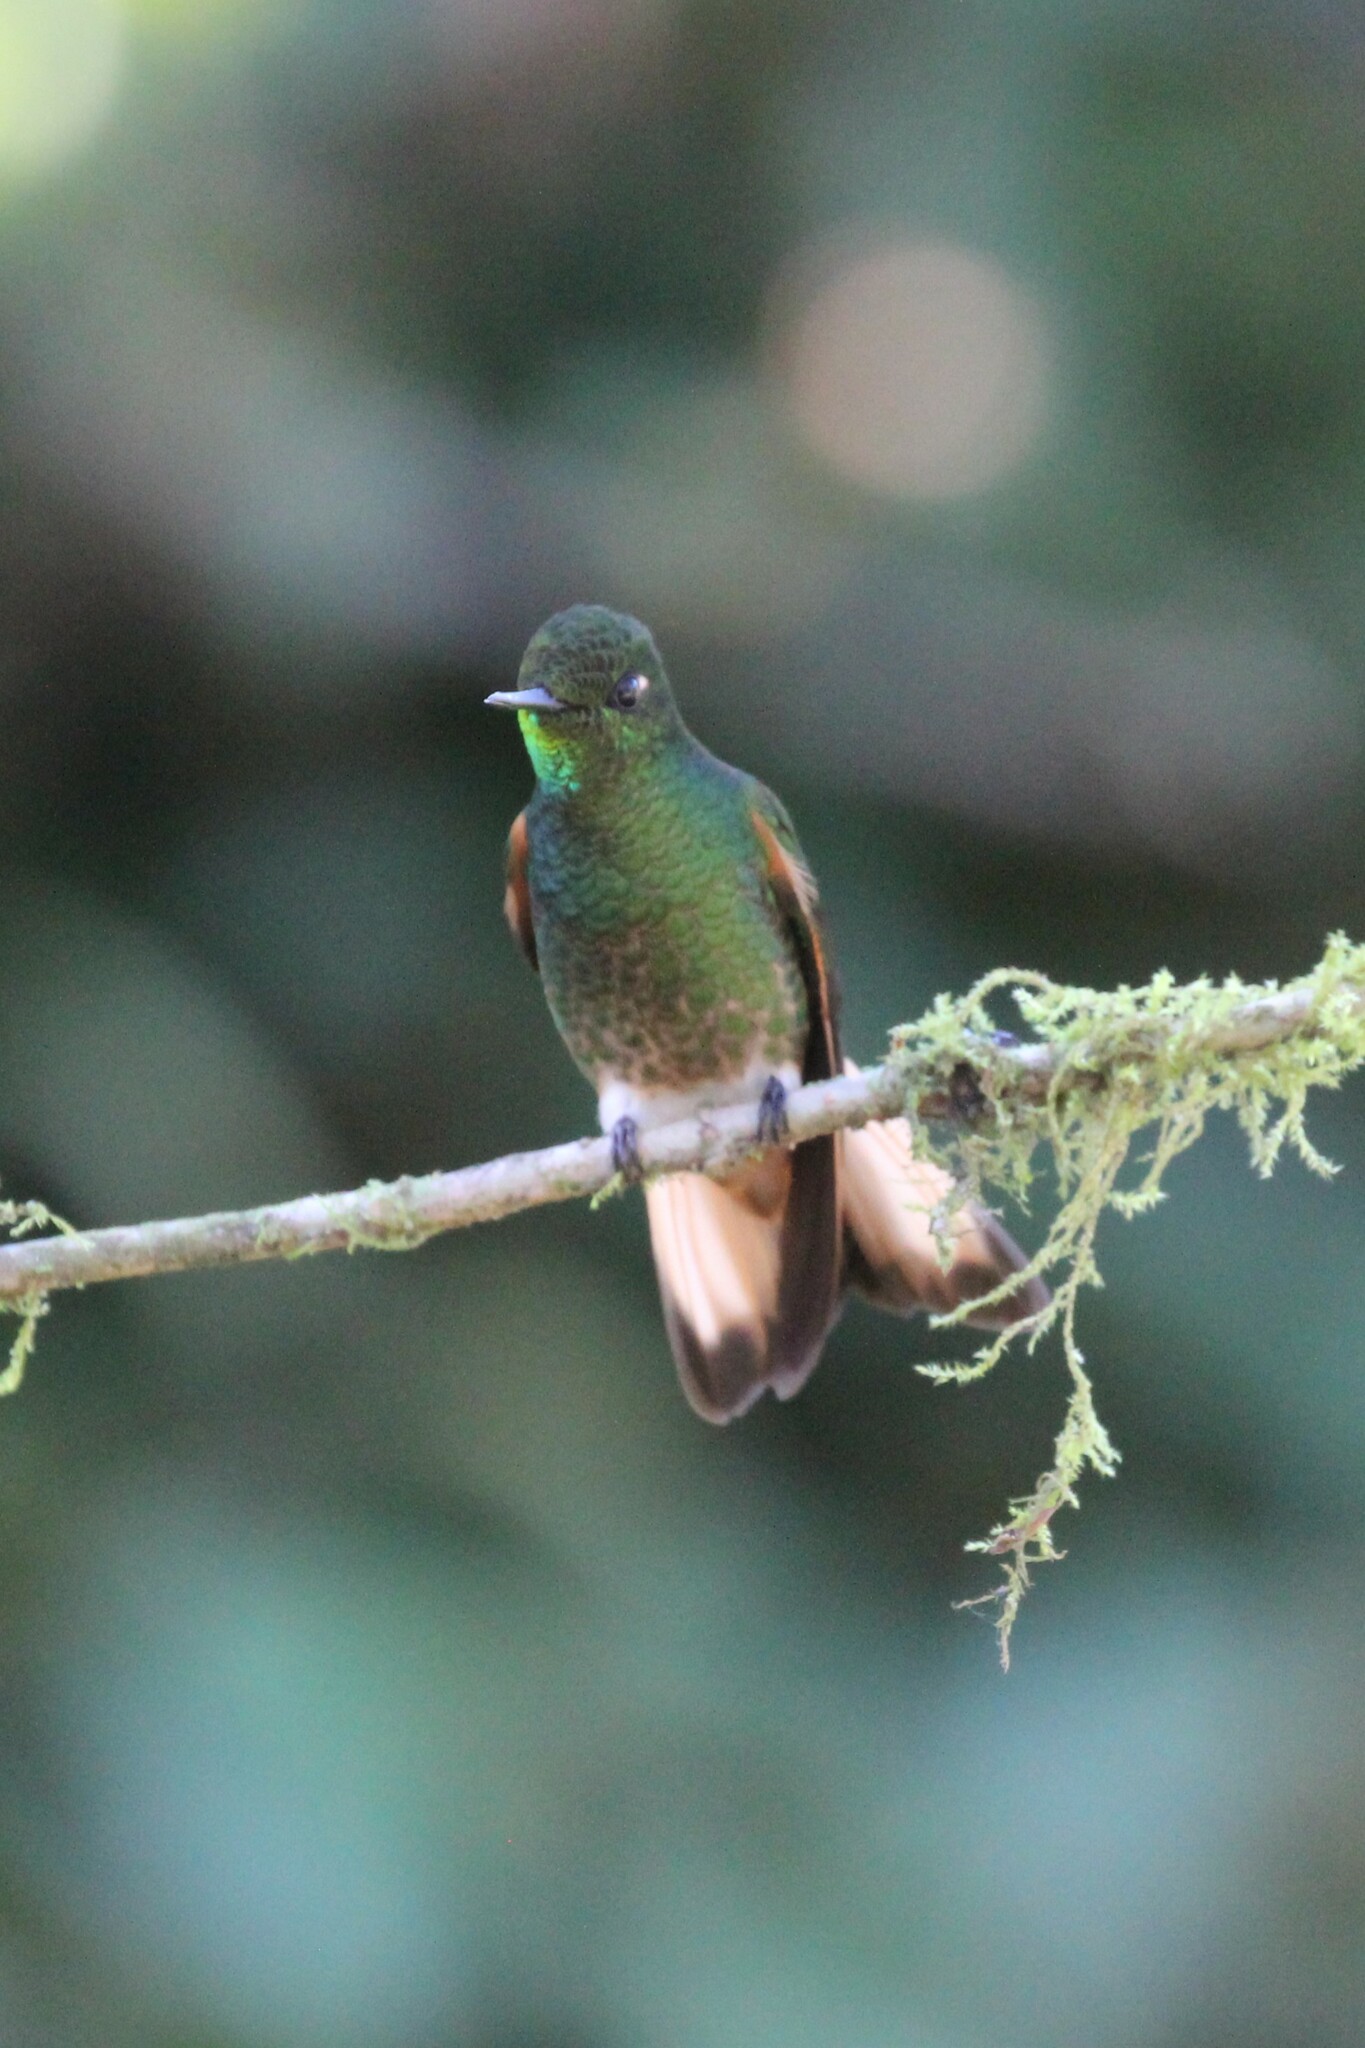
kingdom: Animalia
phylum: Chordata
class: Aves
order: Apodiformes
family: Trochilidae
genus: Boissonneaua
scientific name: Boissonneaua flavescens
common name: Buff-tailed coronet
